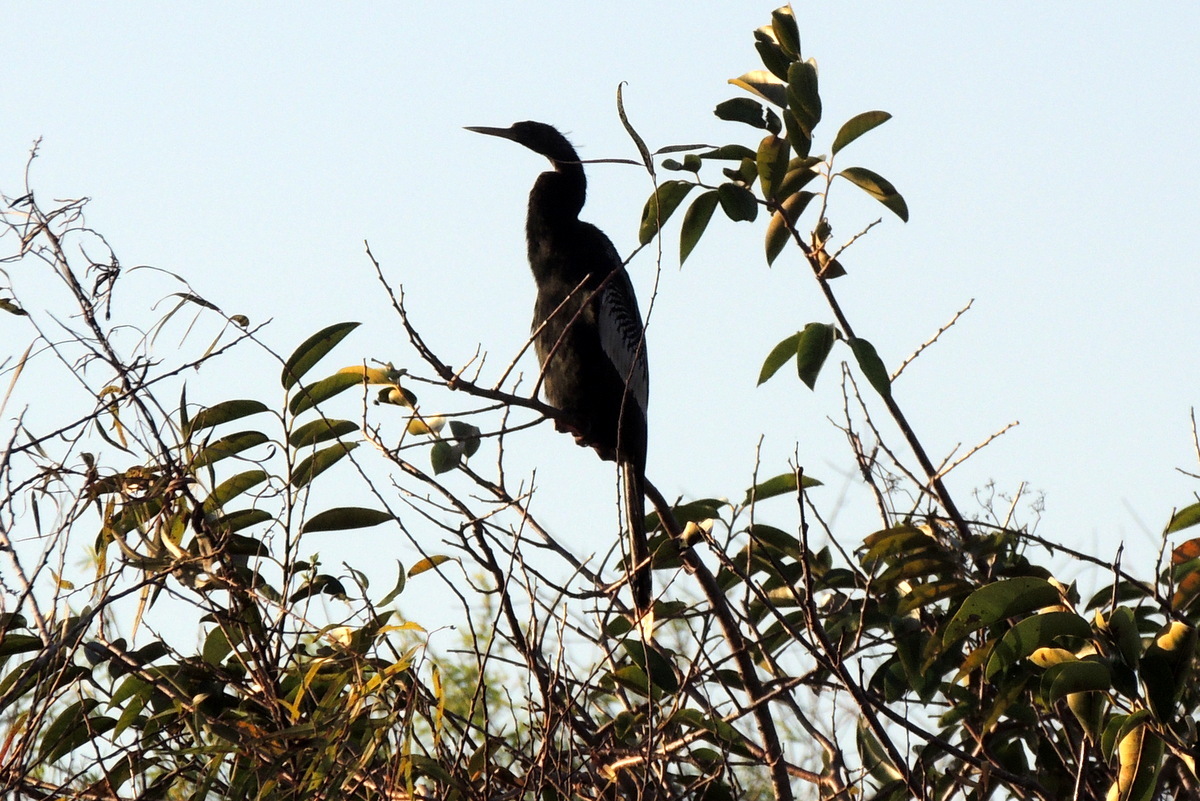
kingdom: Animalia
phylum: Chordata
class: Aves
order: Suliformes
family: Anhingidae
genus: Anhinga
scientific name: Anhinga anhinga
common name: Anhinga
